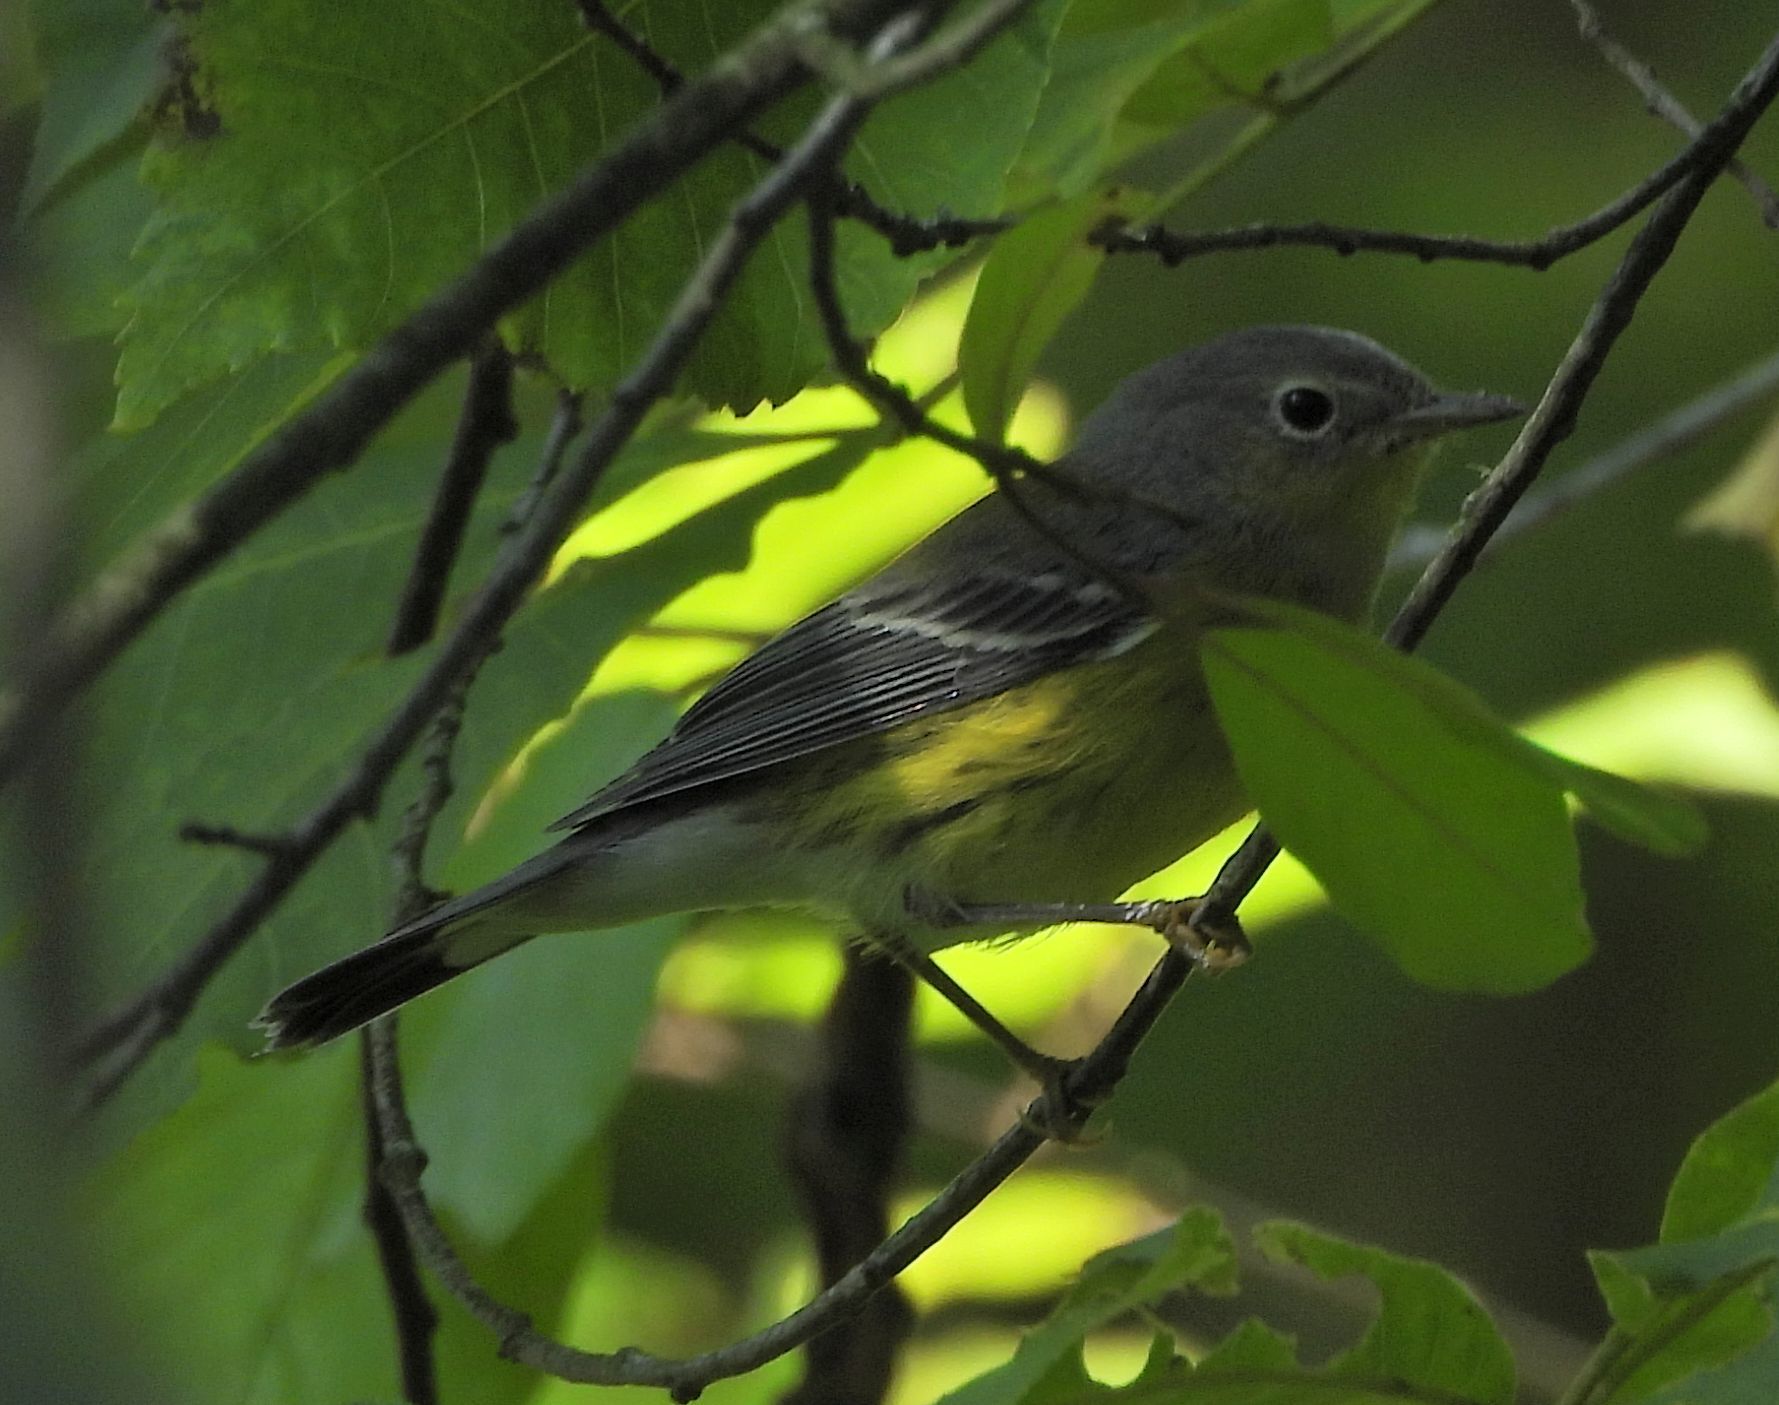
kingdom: Animalia
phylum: Chordata
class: Aves
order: Passeriformes
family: Parulidae
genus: Setophaga
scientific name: Setophaga magnolia
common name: Magnolia warbler
